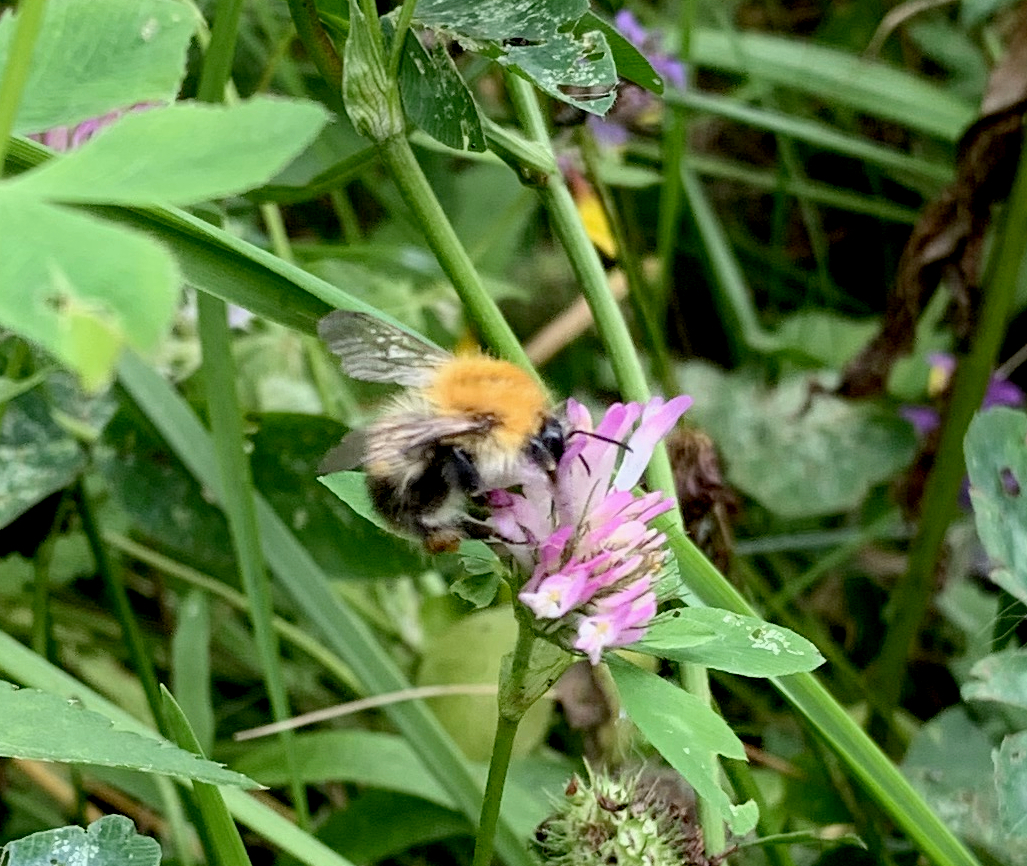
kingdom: Animalia
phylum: Arthropoda
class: Insecta
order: Hymenoptera
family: Apidae
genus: Bombus
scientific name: Bombus pascuorum
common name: Common carder bee
